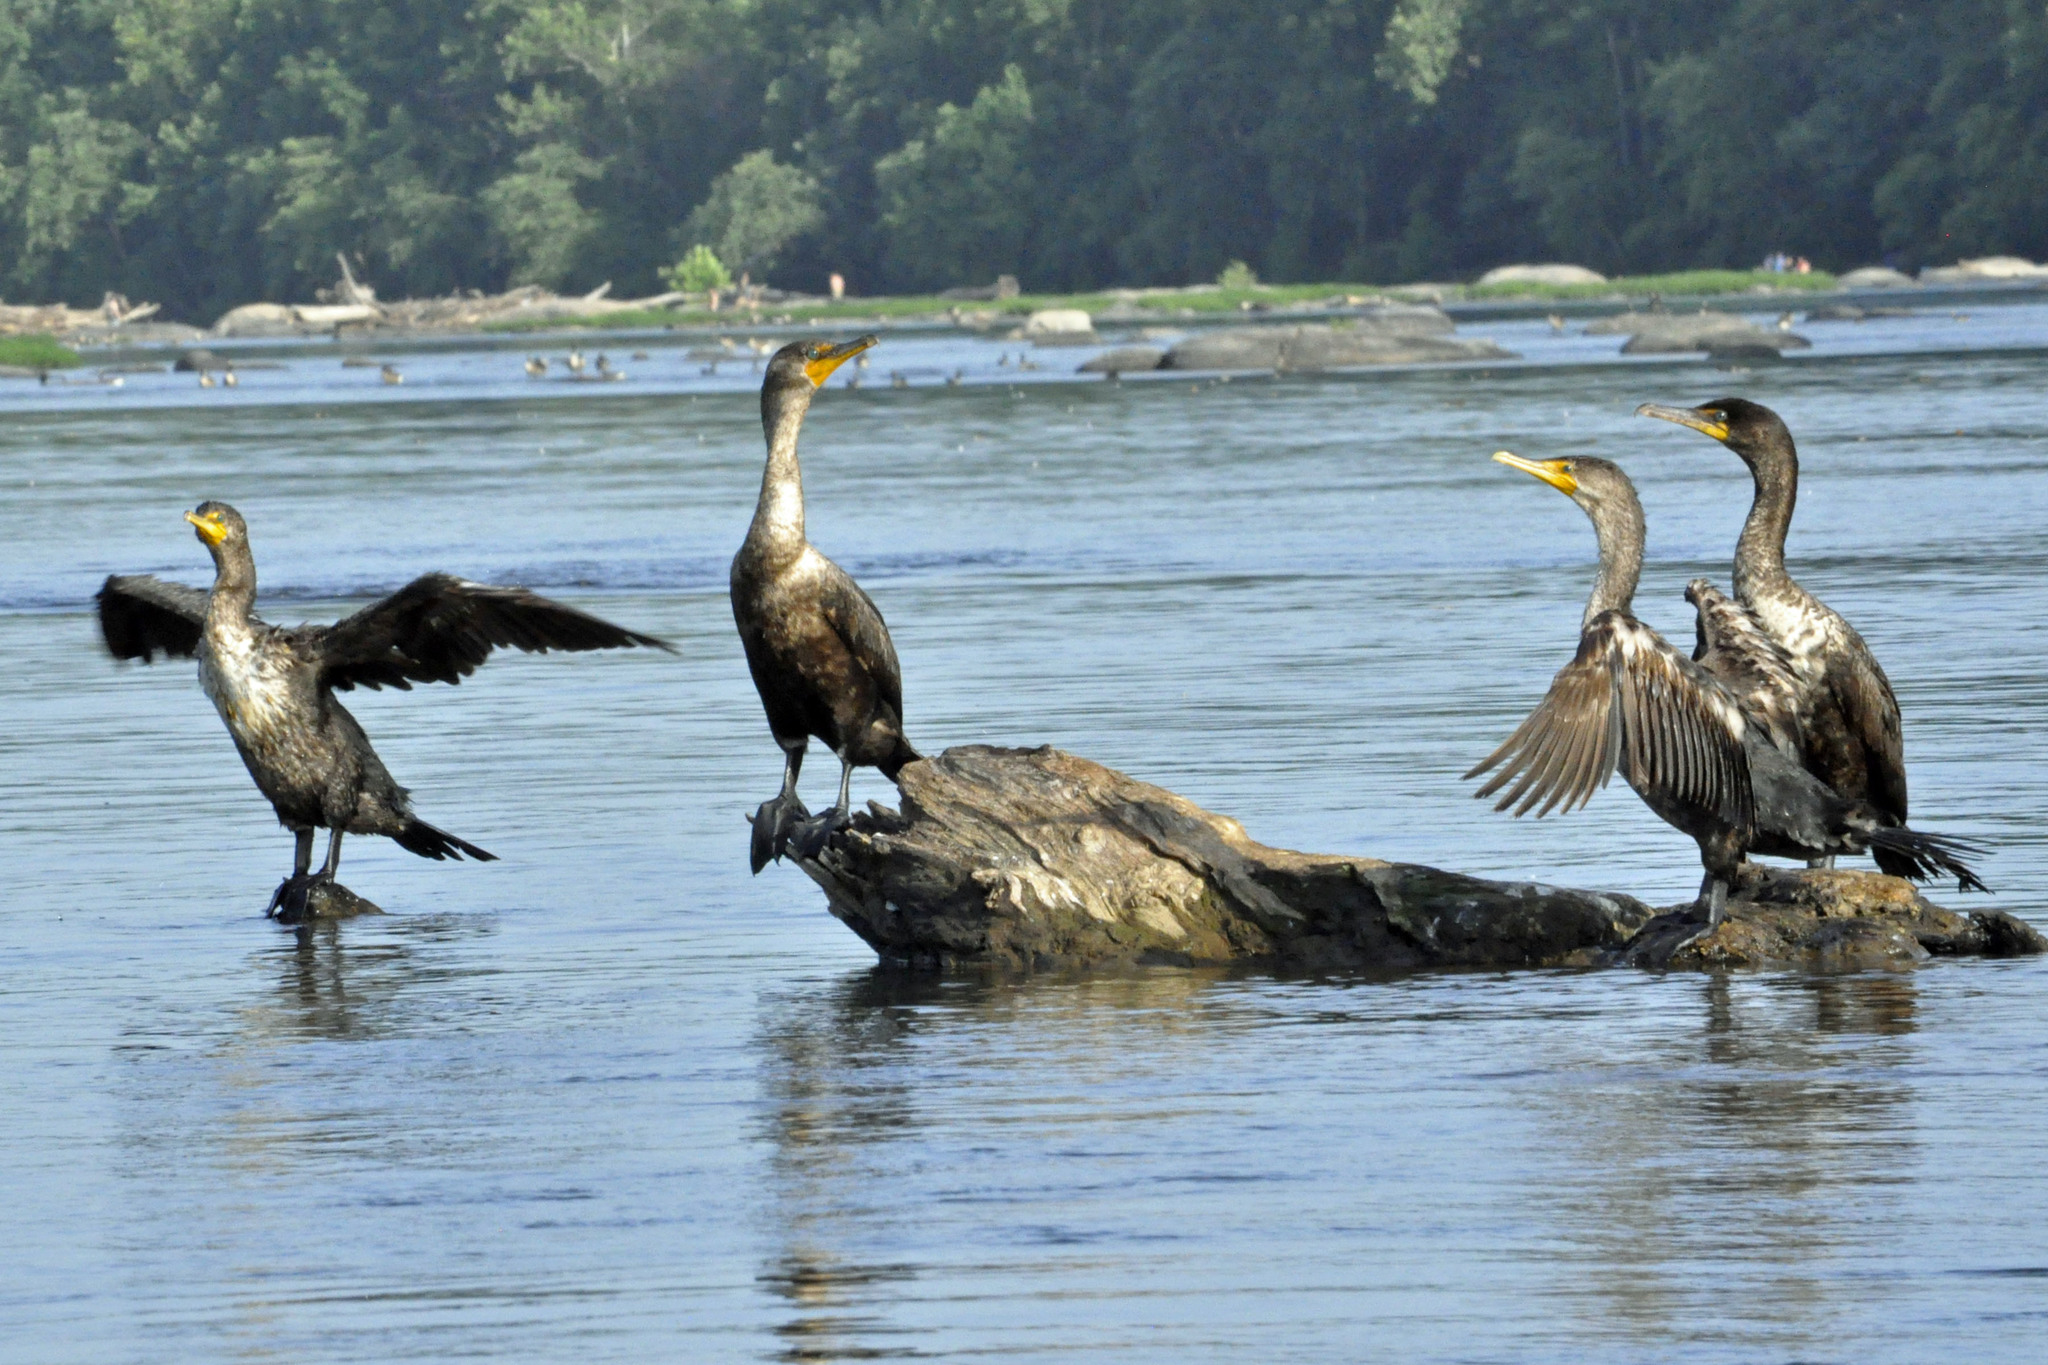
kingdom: Animalia
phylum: Chordata
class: Aves
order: Suliformes
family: Phalacrocoracidae
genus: Phalacrocorax
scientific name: Phalacrocorax auritus
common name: Double-crested cormorant
